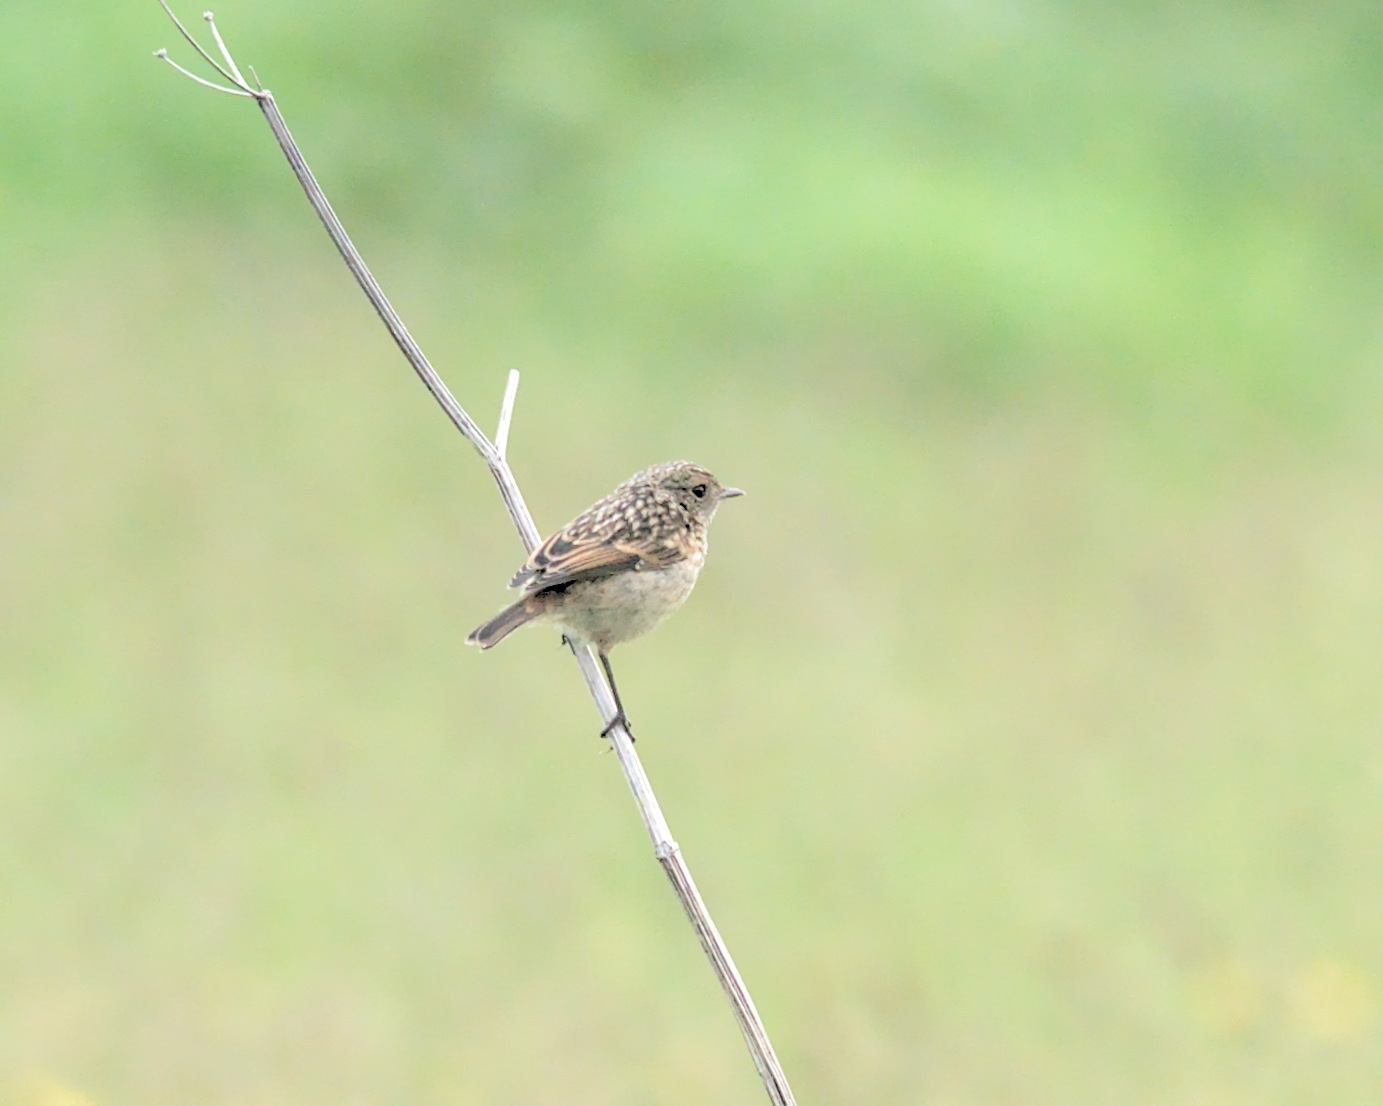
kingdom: Animalia
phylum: Chordata
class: Aves
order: Passeriformes
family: Muscicapidae
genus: Saxicola
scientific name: Saxicola rubicola
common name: European stonechat
